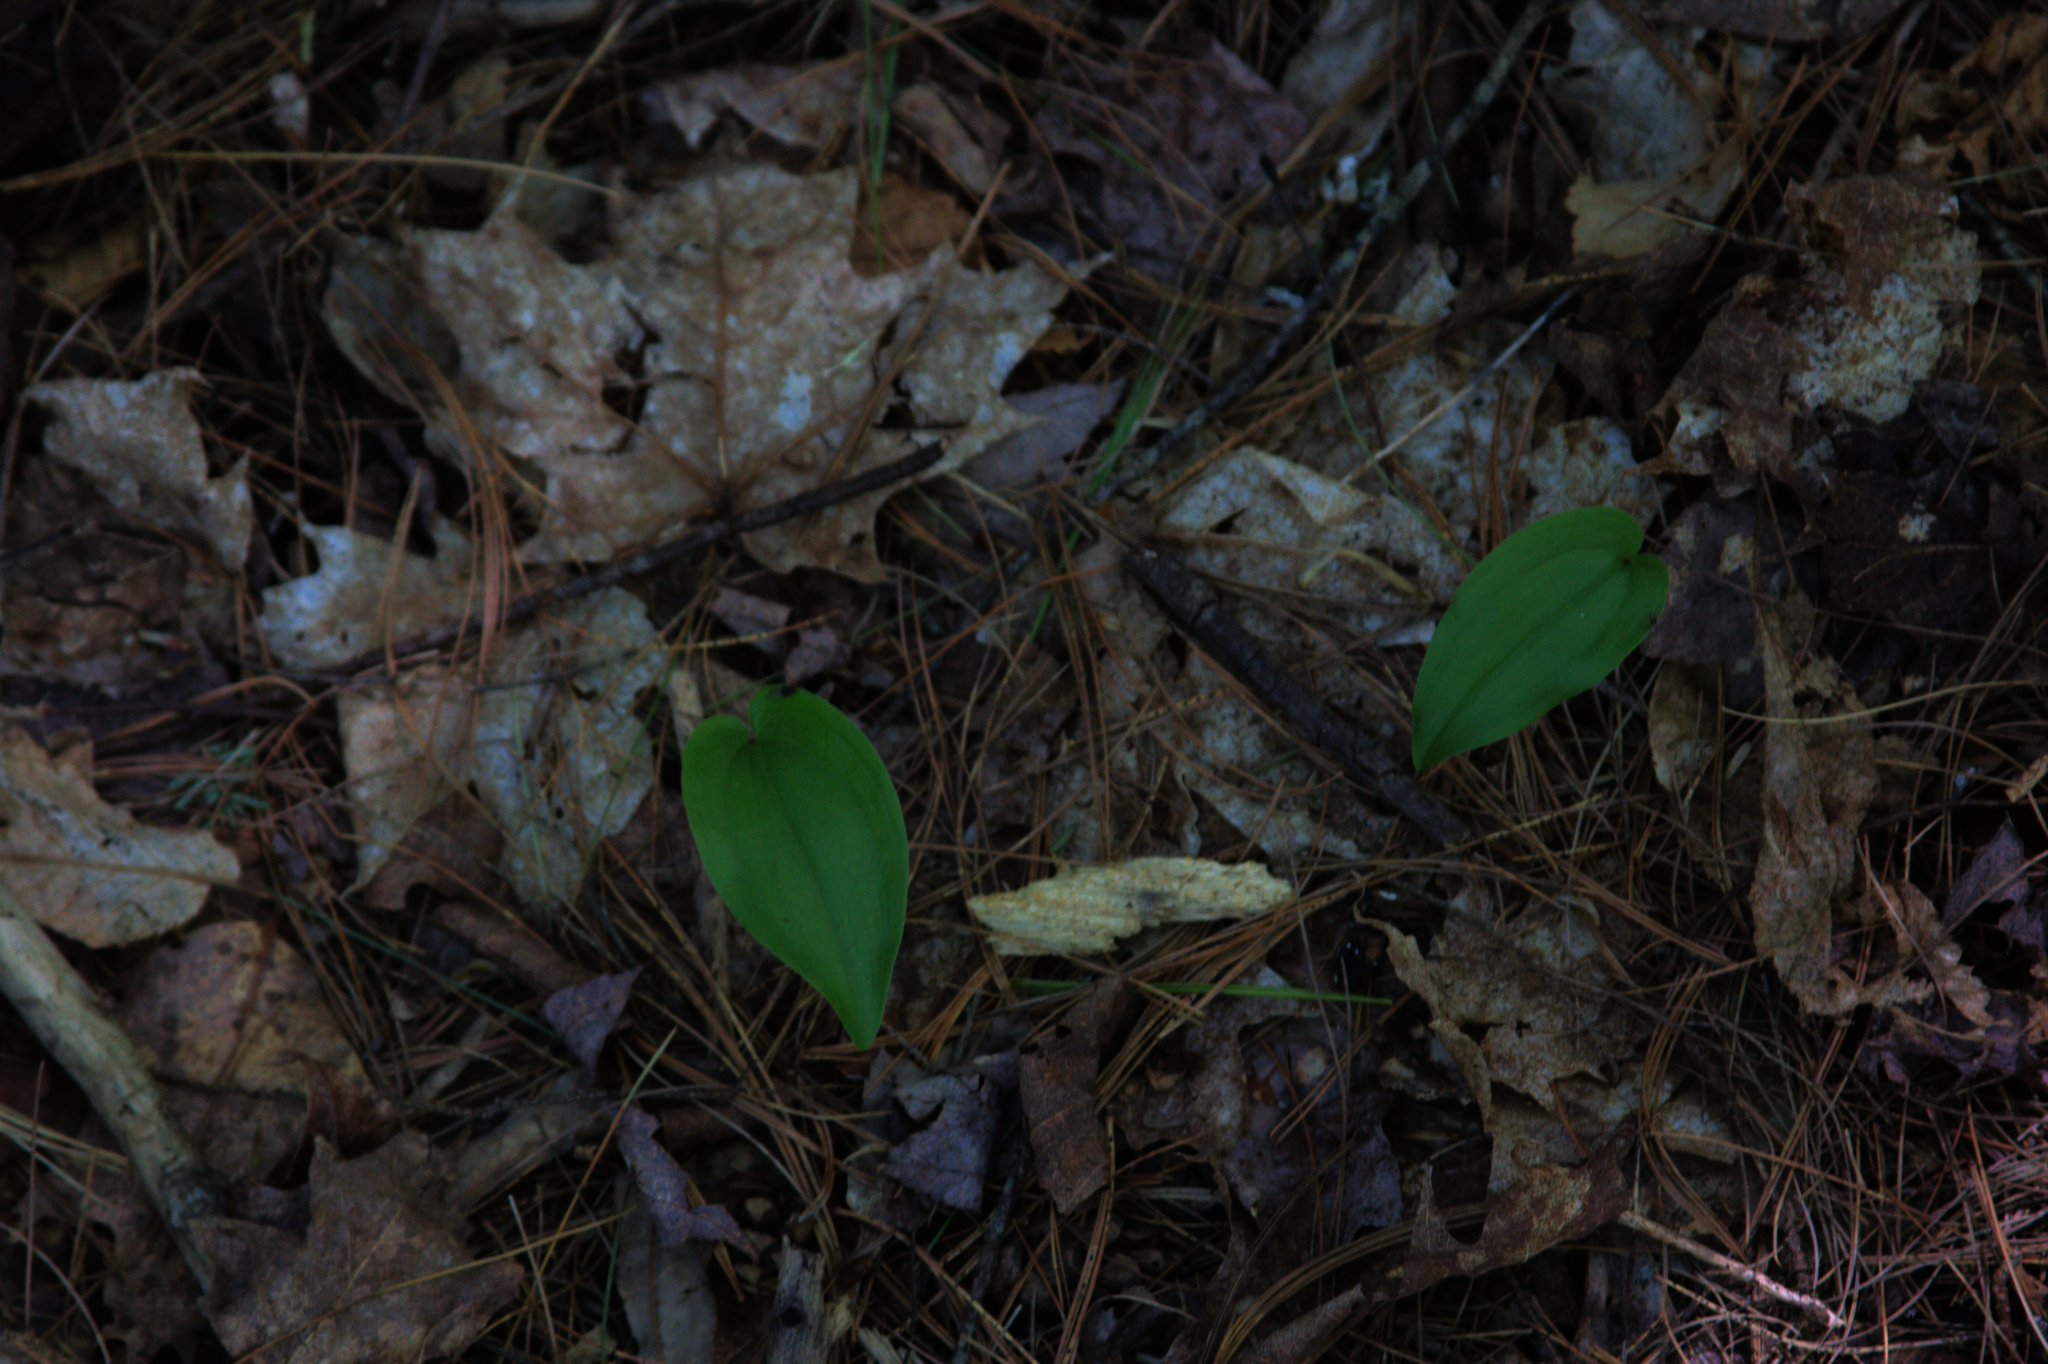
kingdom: Plantae
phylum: Tracheophyta
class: Liliopsida
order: Asparagales
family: Asparagaceae
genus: Maianthemum
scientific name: Maianthemum canadense
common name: False lily-of-the-valley
